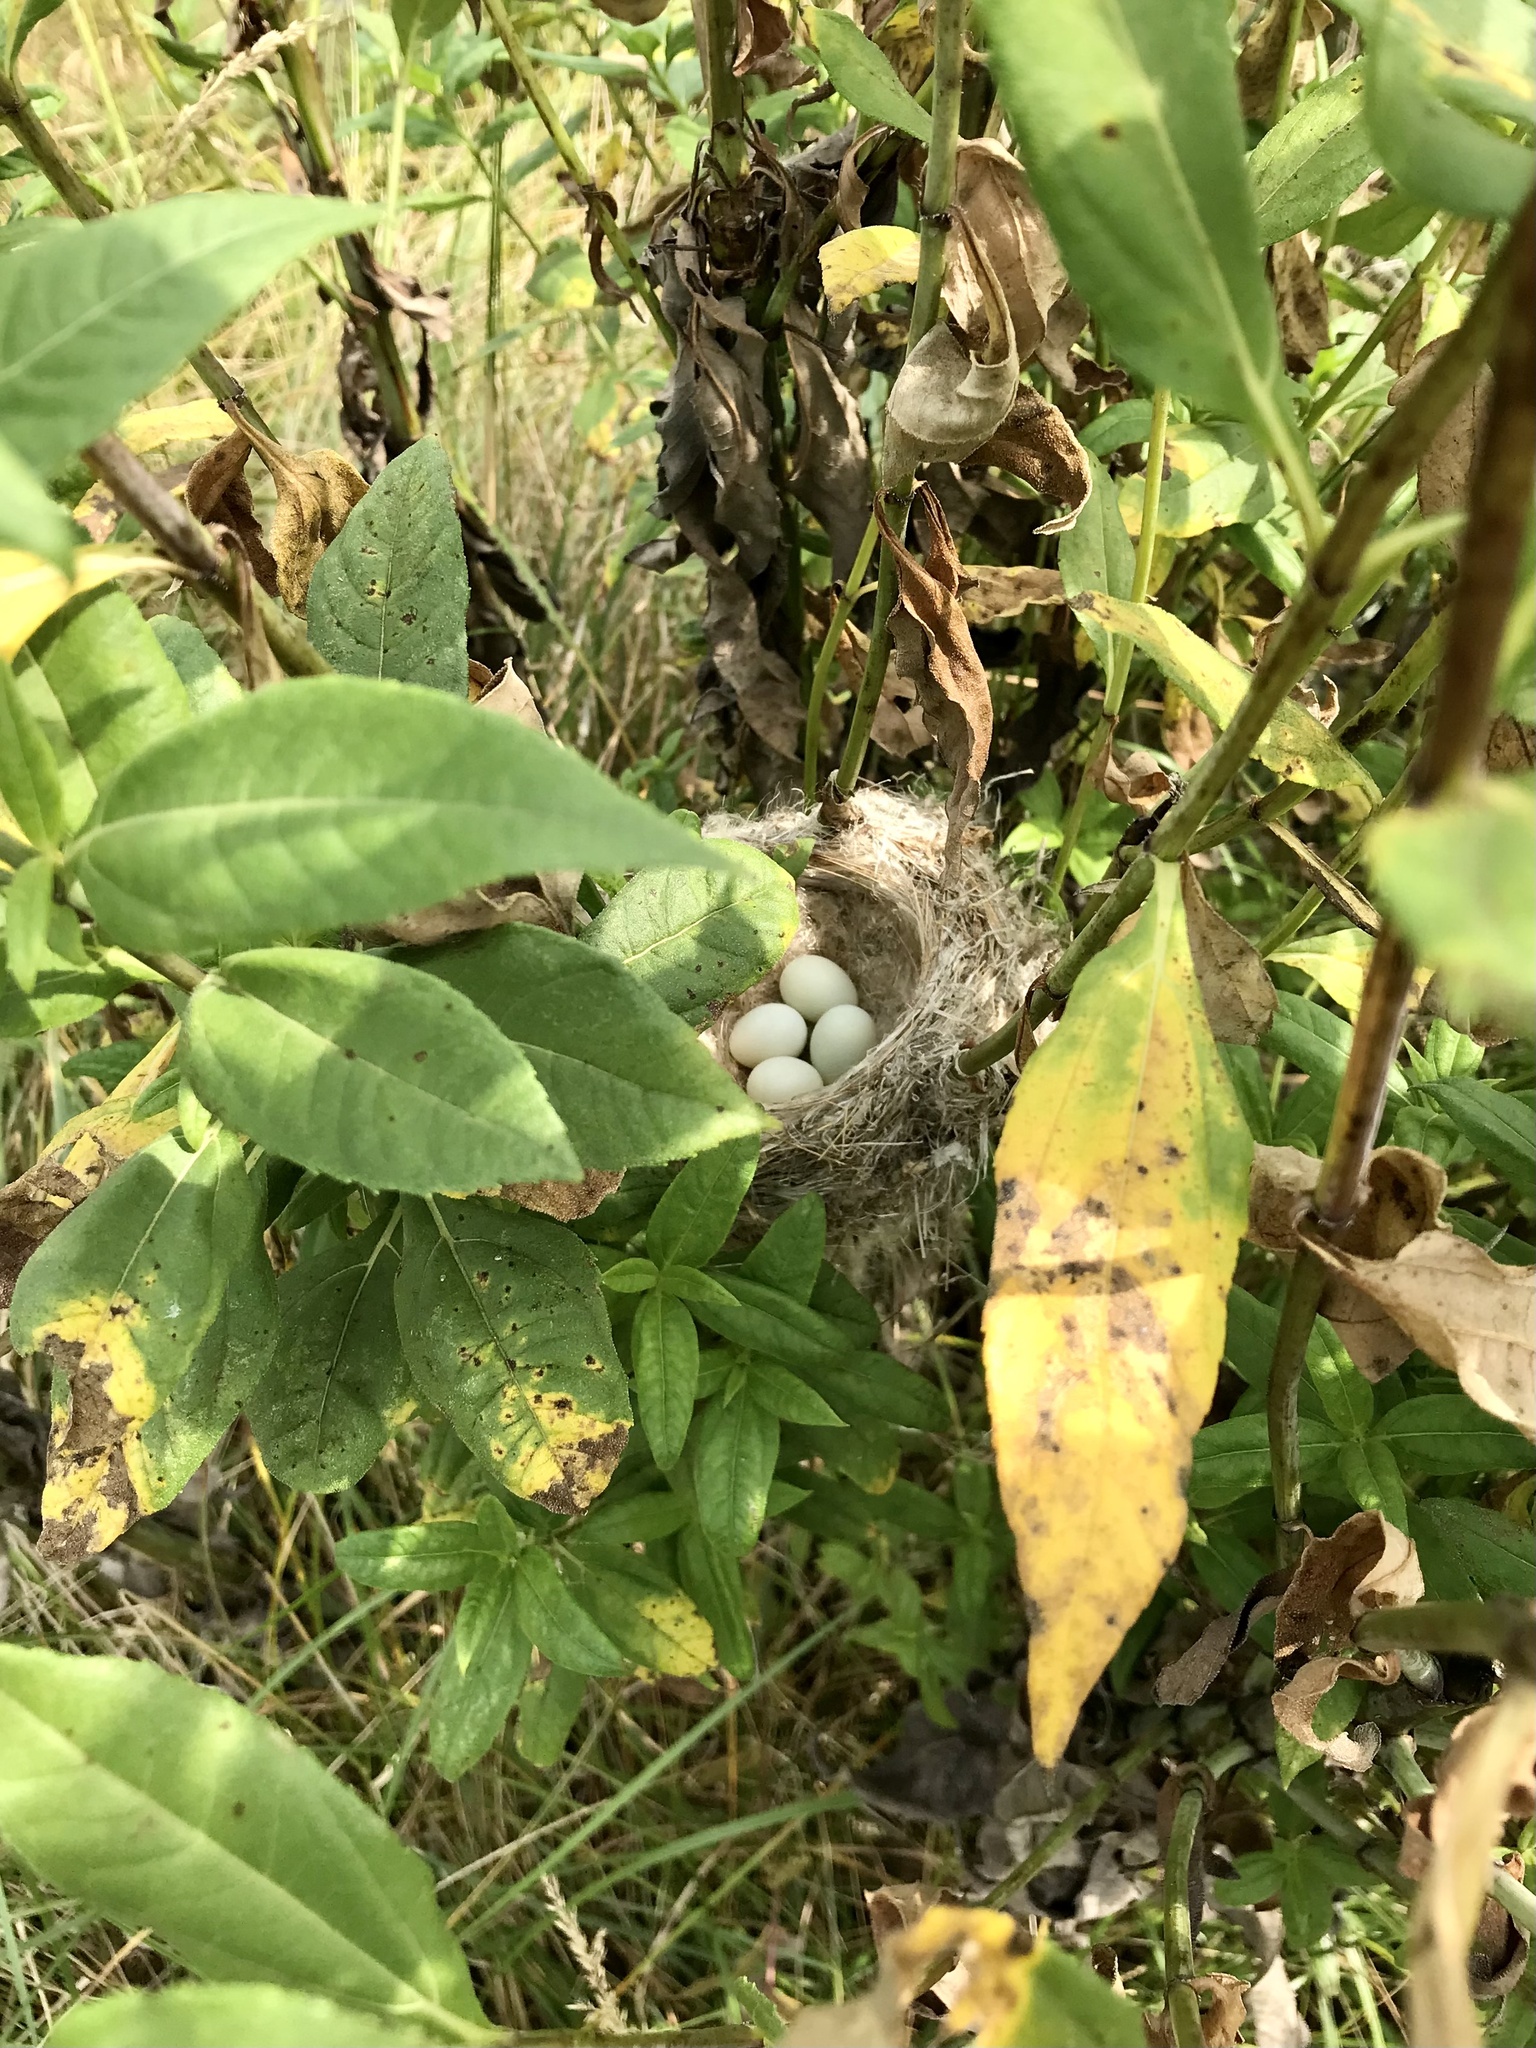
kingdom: Animalia
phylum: Chordata
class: Aves
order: Passeriformes
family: Fringillidae
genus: Spinus
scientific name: Spinus tristis
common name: American goldfinch
